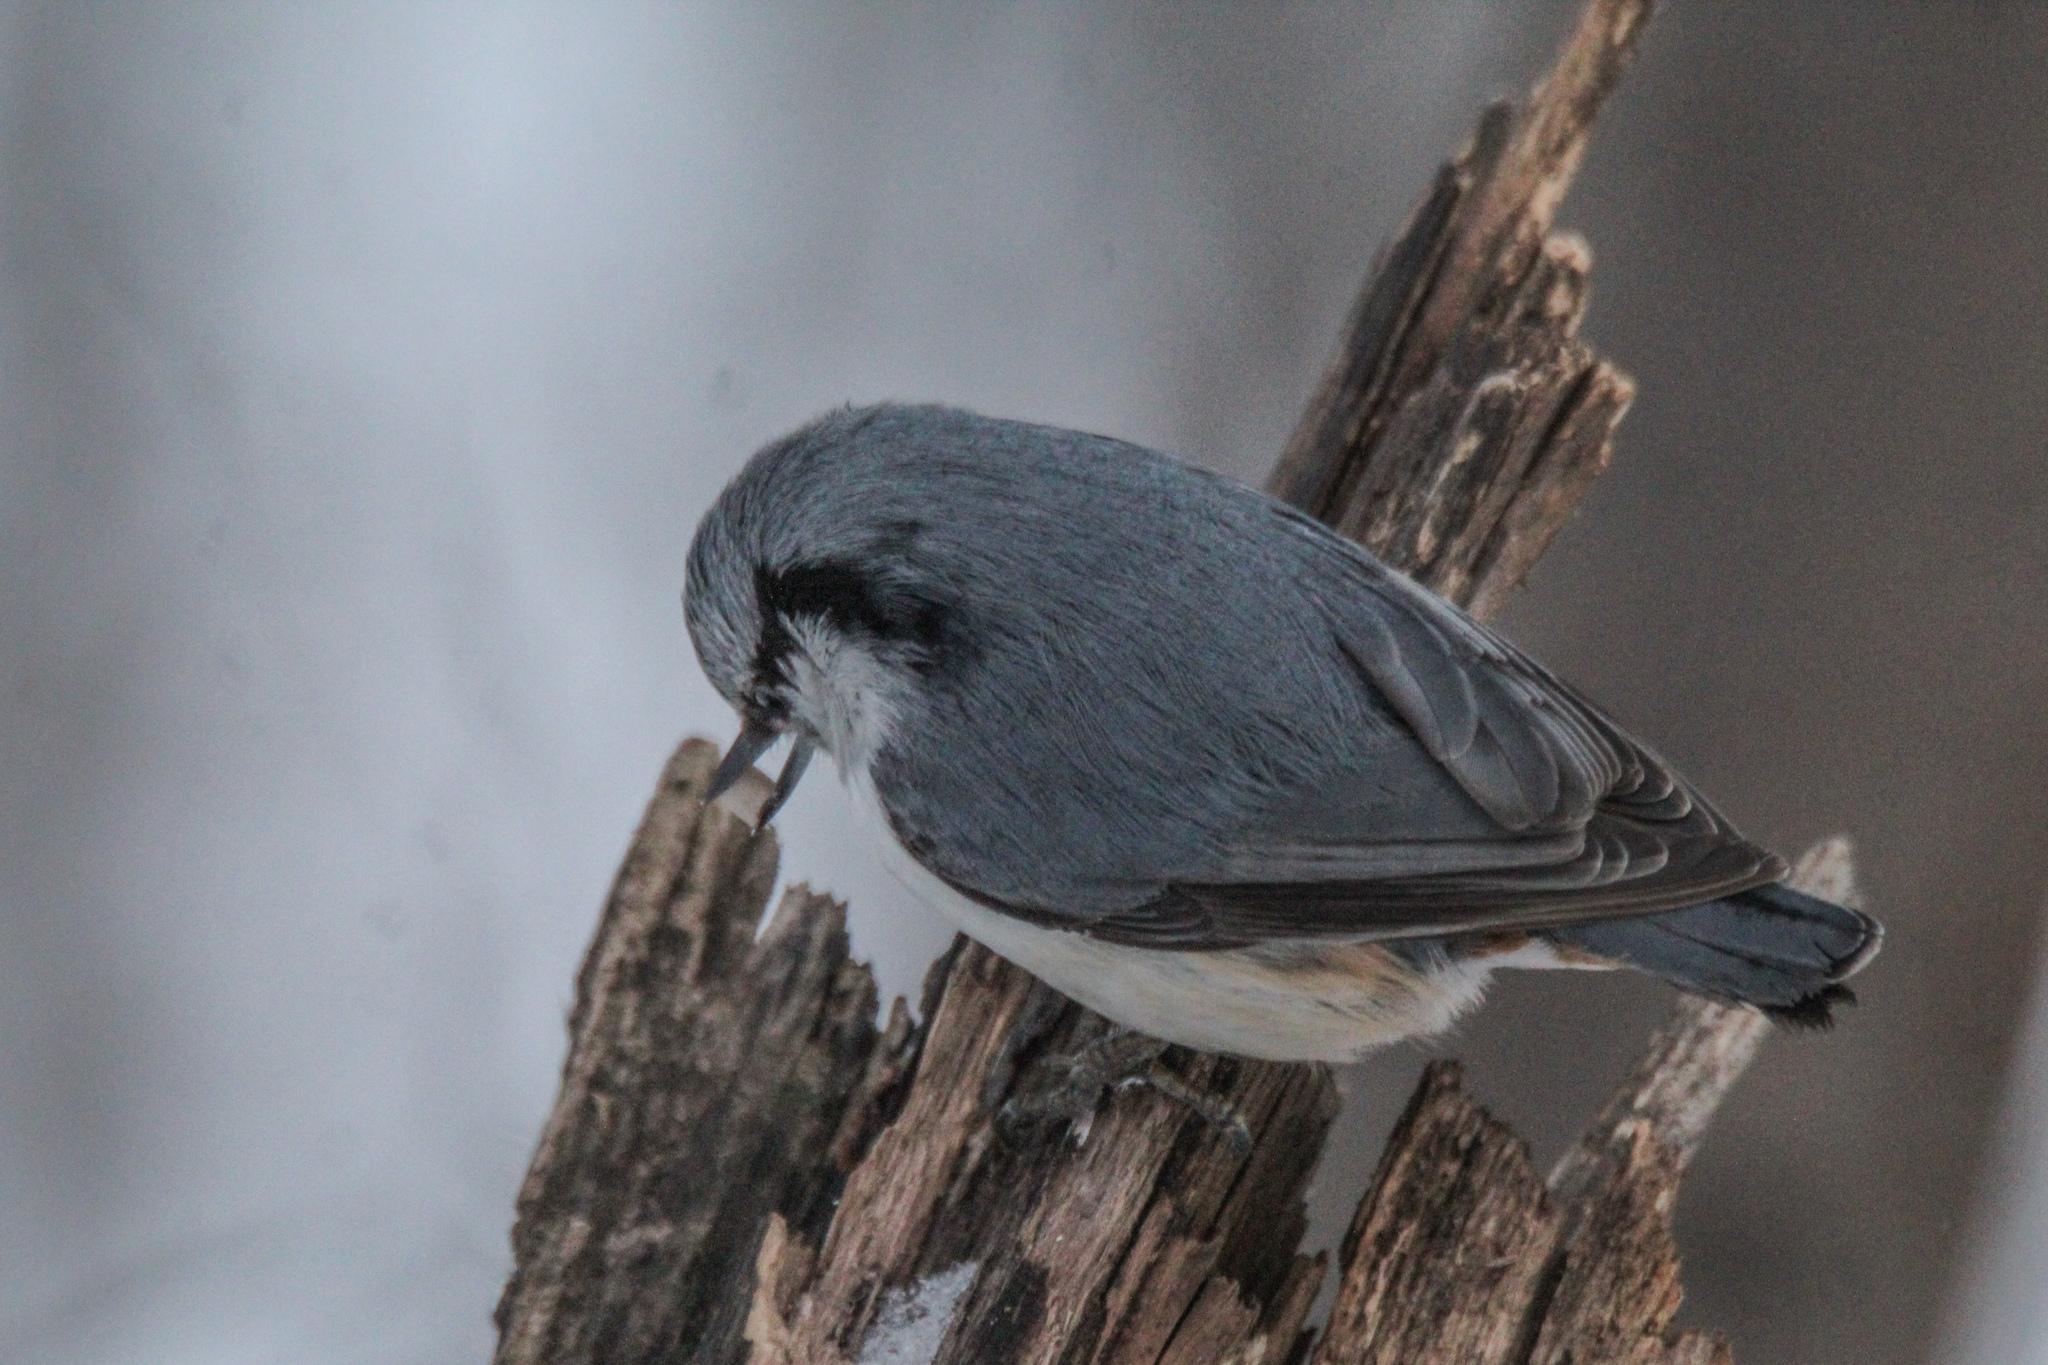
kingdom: Animalia
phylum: Chordata
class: Aves
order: Passeriformes
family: Sittidae
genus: Sitta
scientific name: Sitta europaea
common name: Eurasian nuthatch
